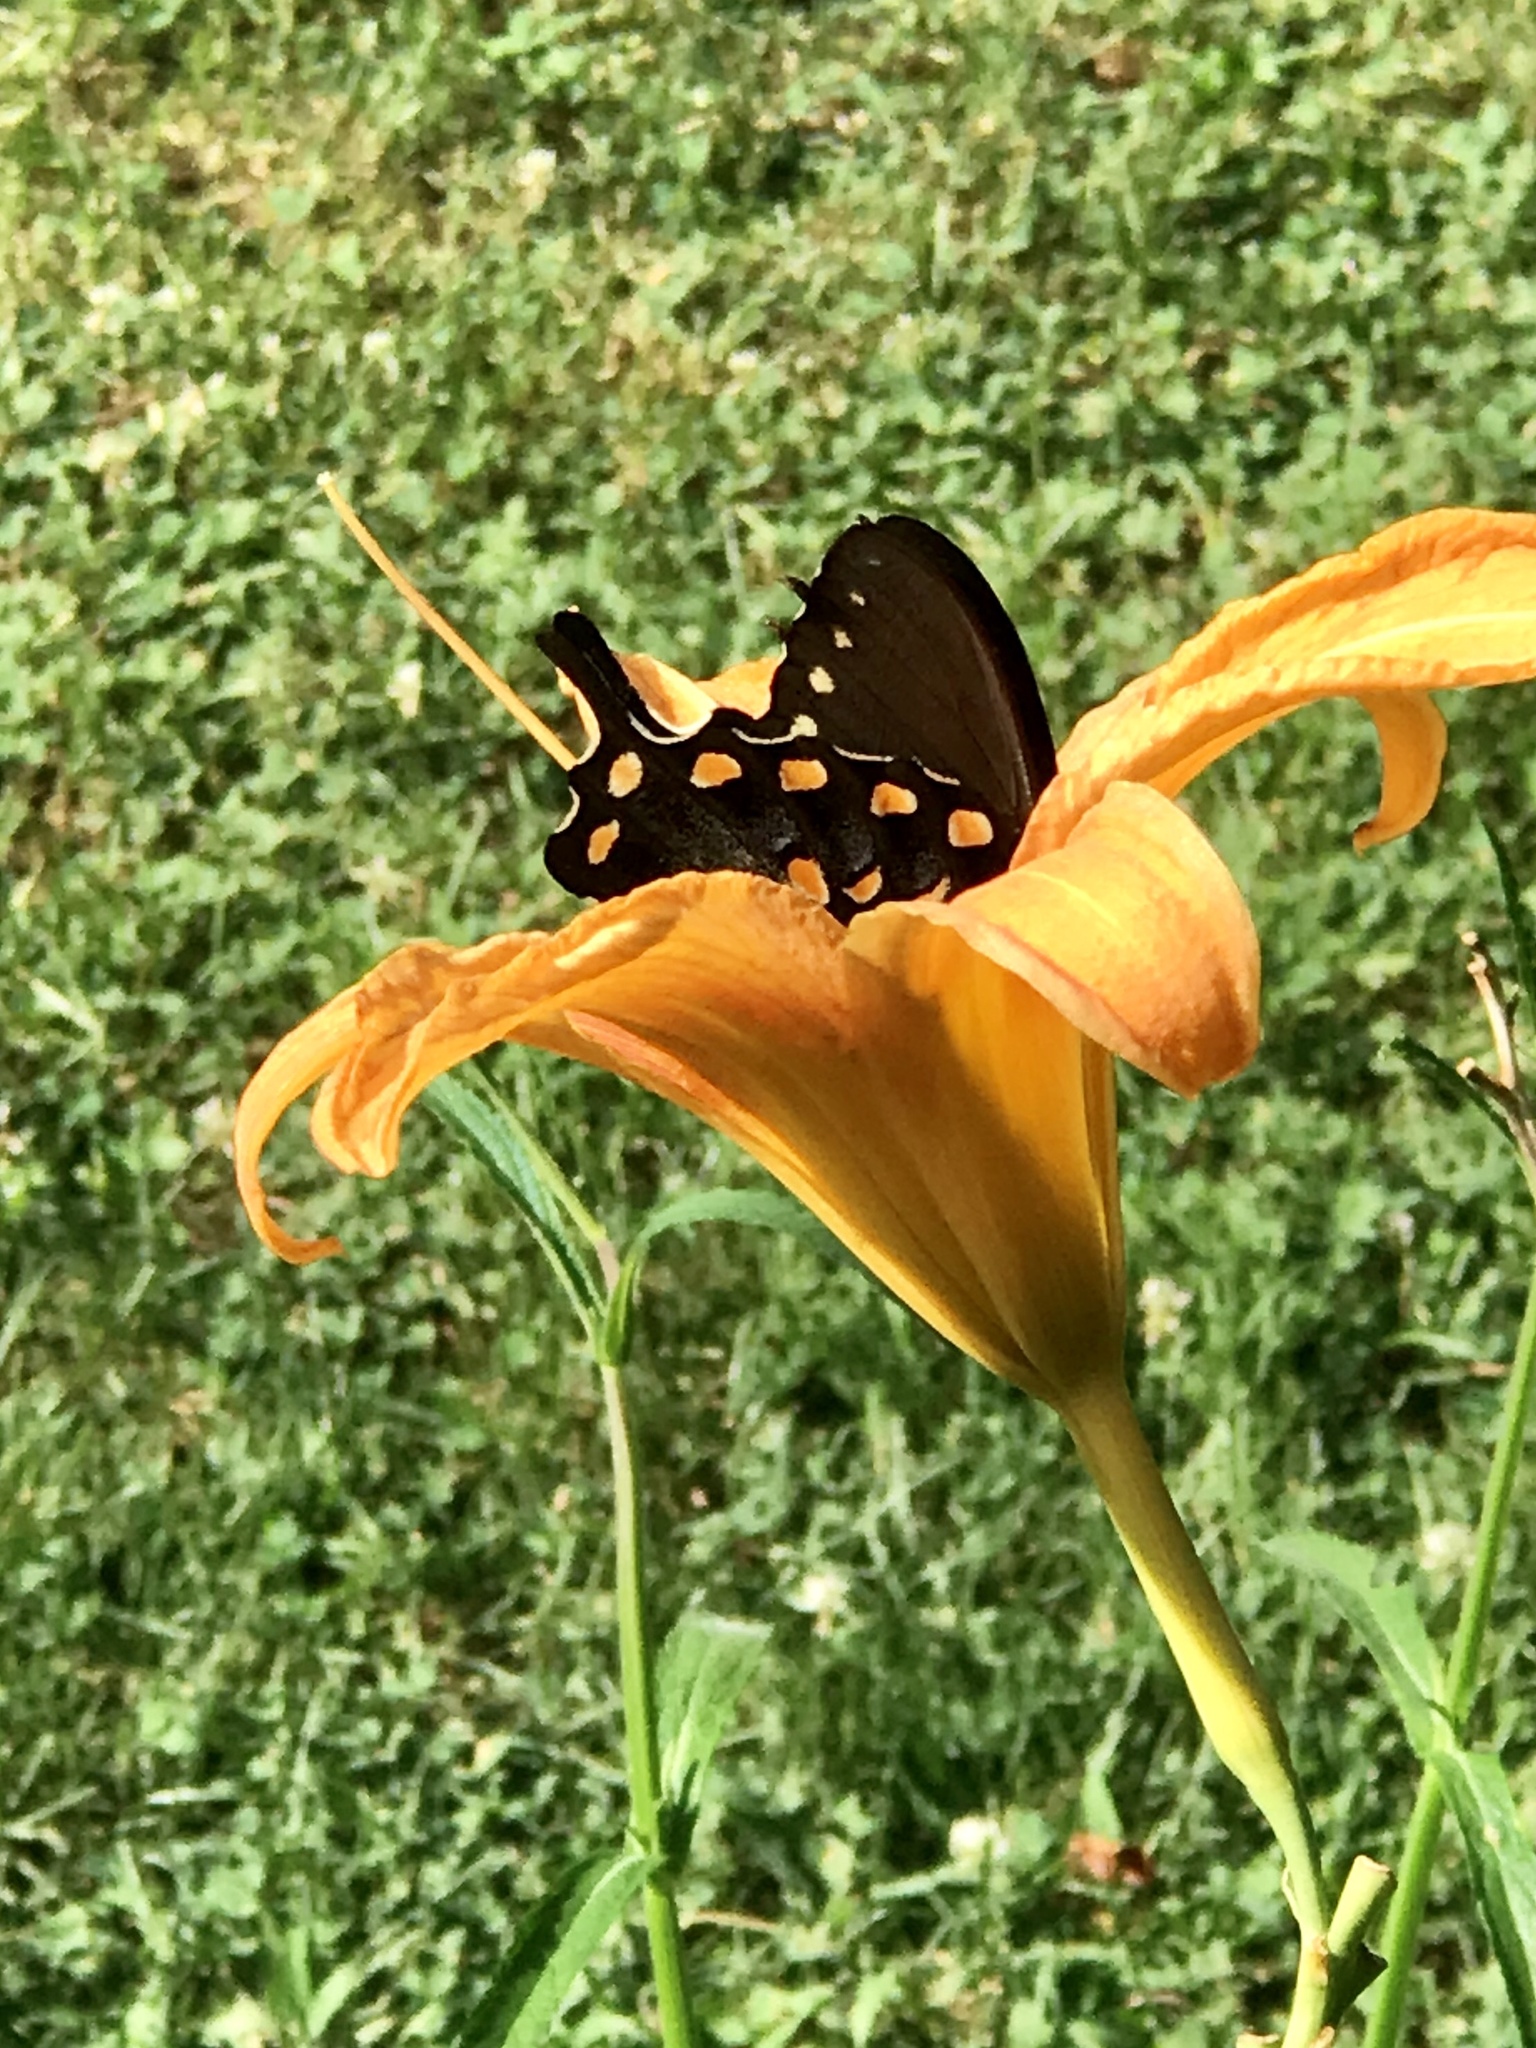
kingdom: Animalia
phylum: Arthropoda
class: Insecta
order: Lepidoptera
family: Papilionidae
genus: Papilio
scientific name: Papilio troilus
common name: Spicebush swallowtail
